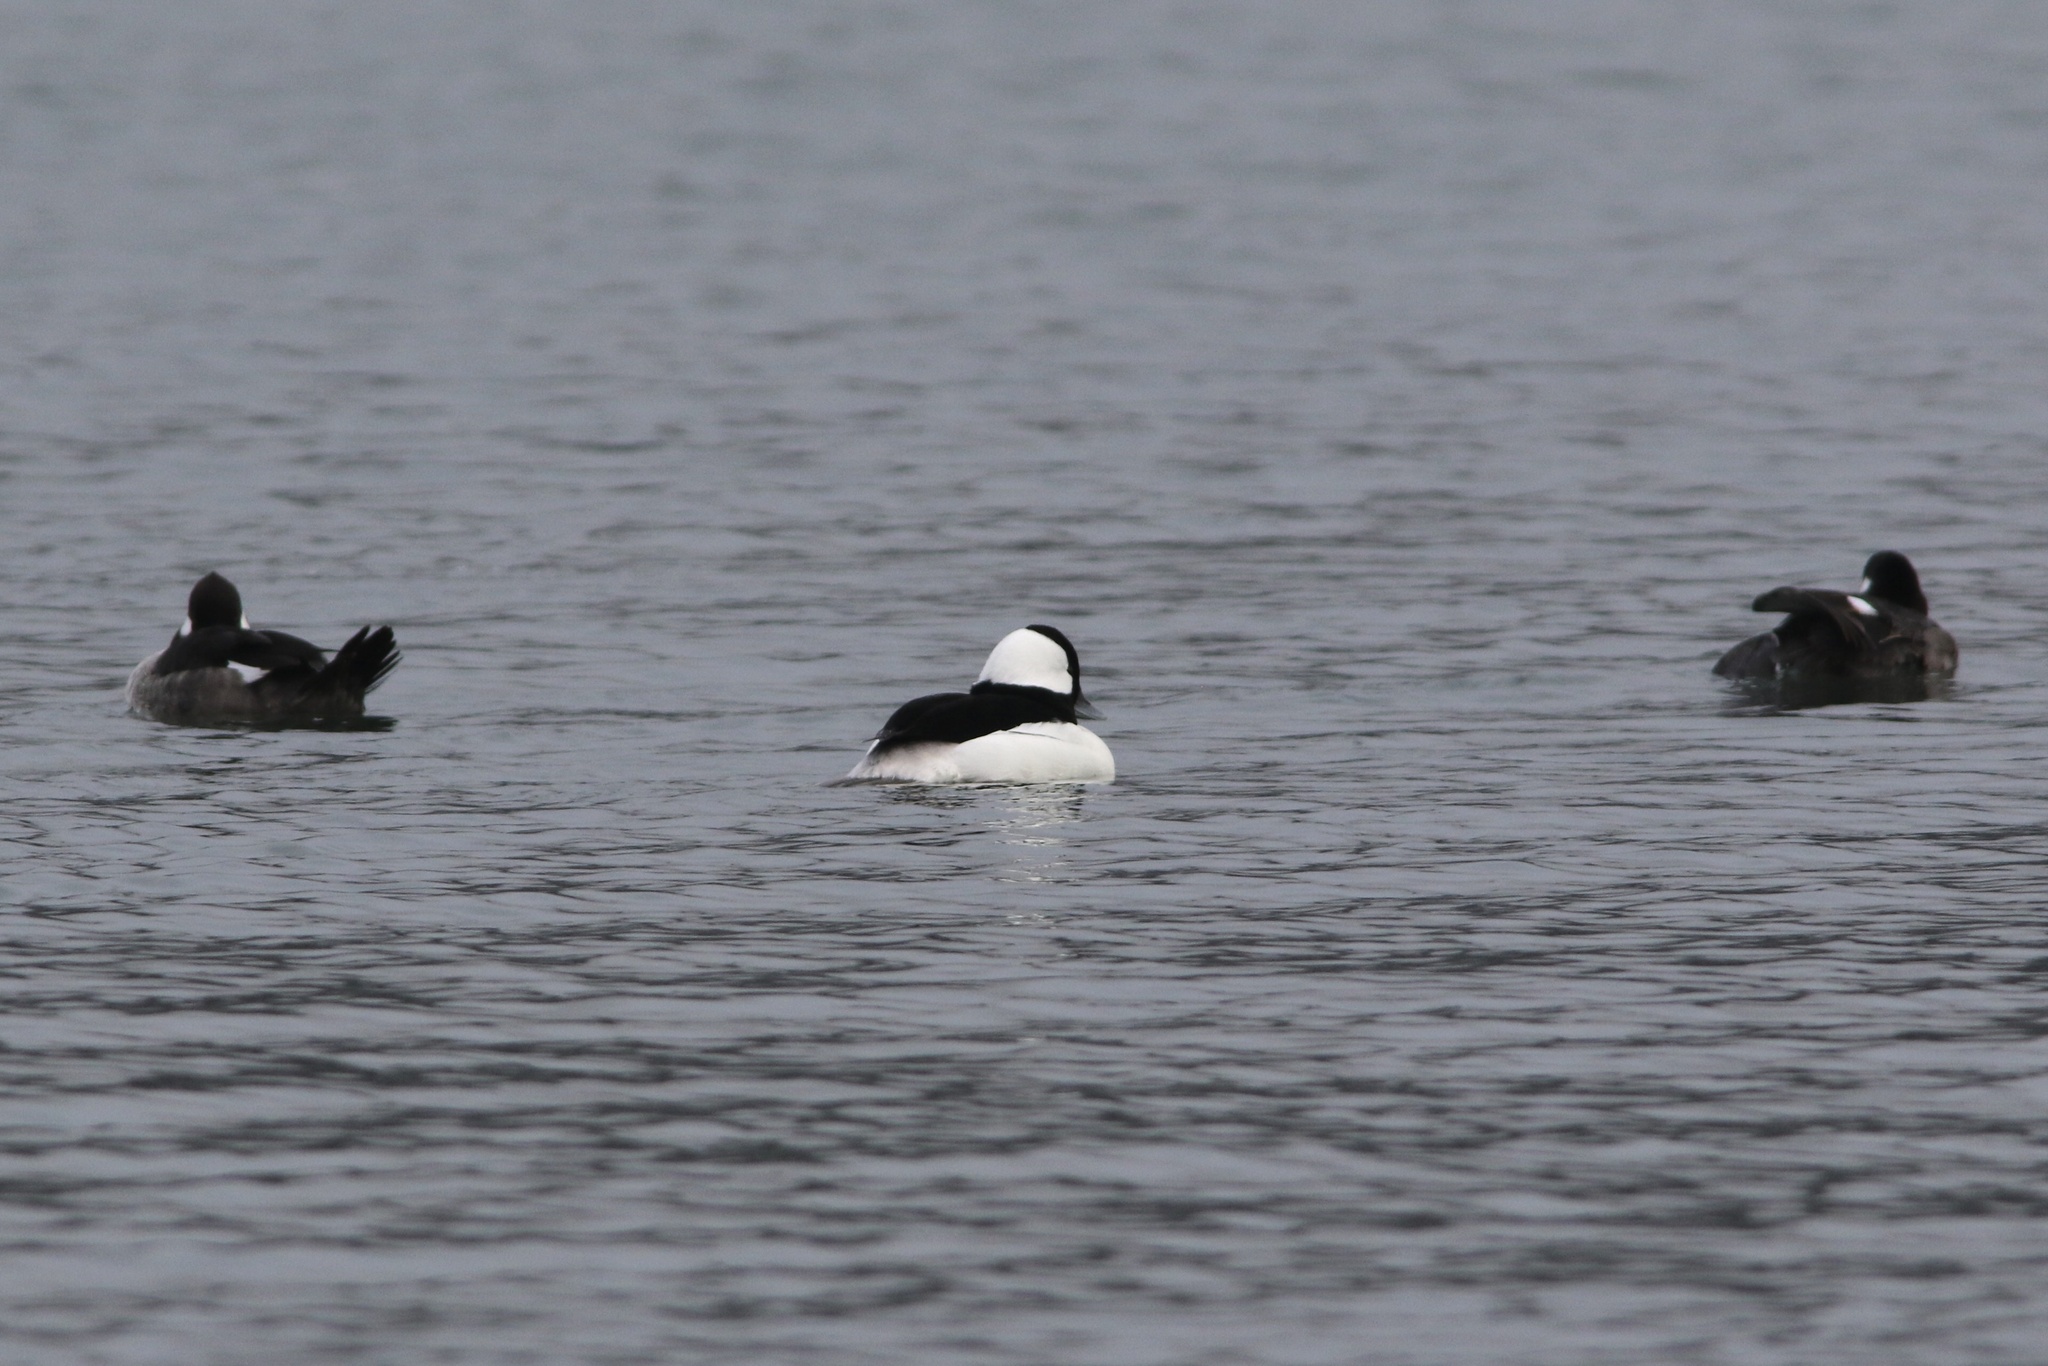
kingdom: Animalia
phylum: Chordata
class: Aves
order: Anseriformes
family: Anatidae
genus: Bucephala
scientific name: Bucephala albeola
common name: Bufflehead
